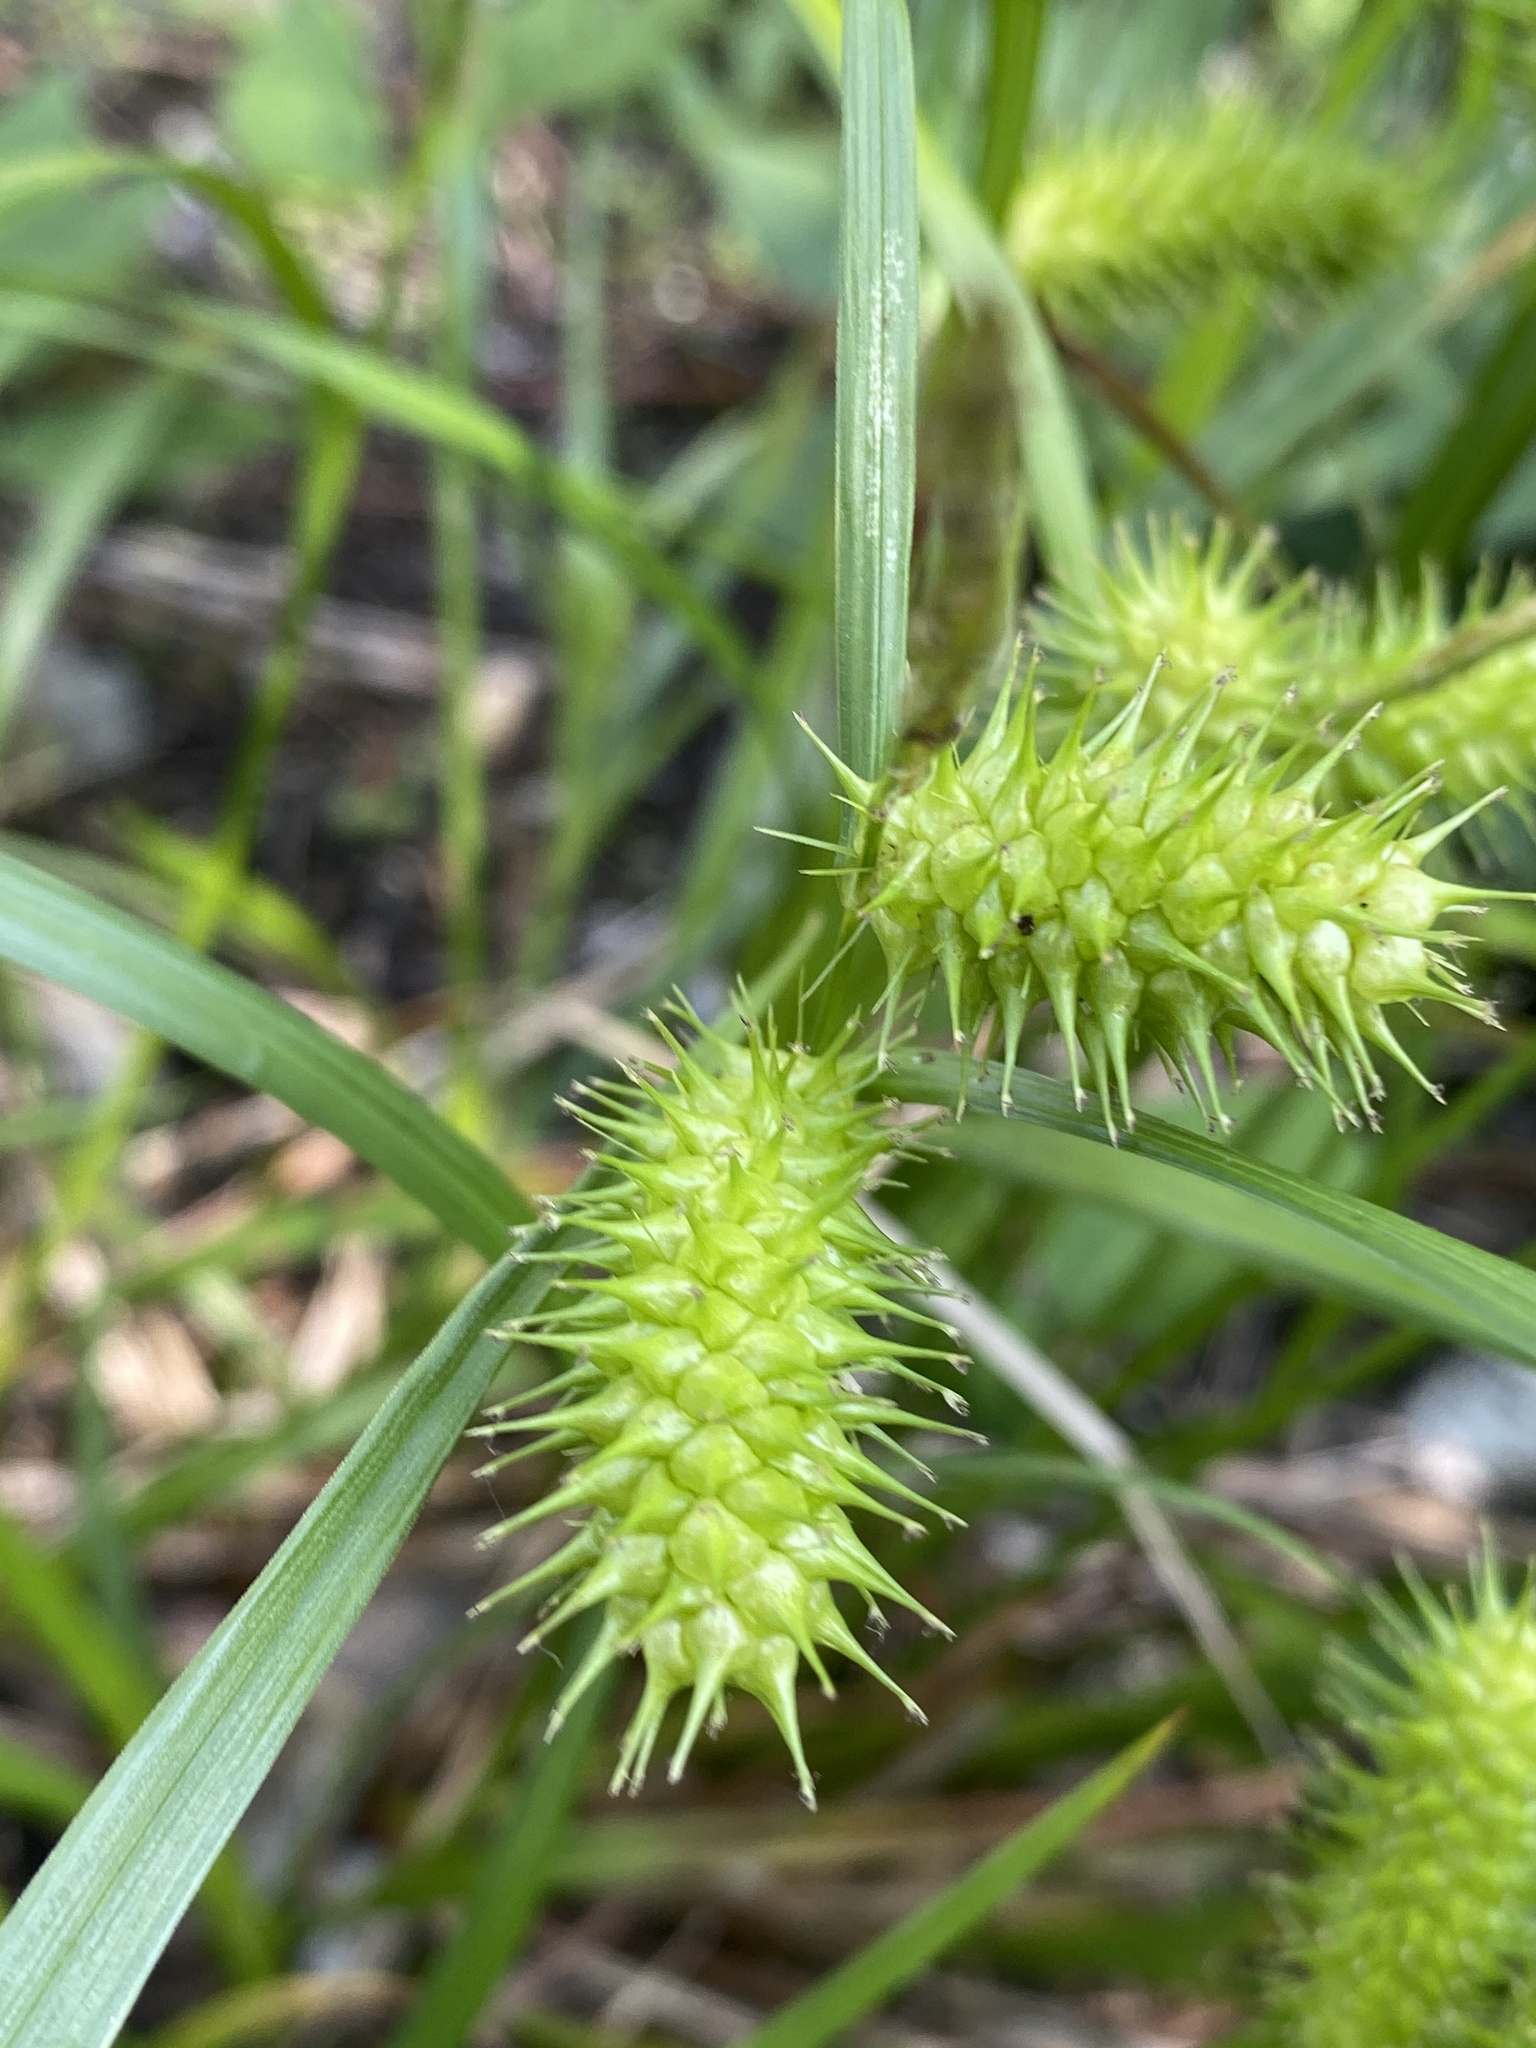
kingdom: Plantae
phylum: Tracheophyta
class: Liliopsida
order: Poales
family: Cyperaceae
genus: Carex
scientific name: Carex lurida
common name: Sallow sedge
